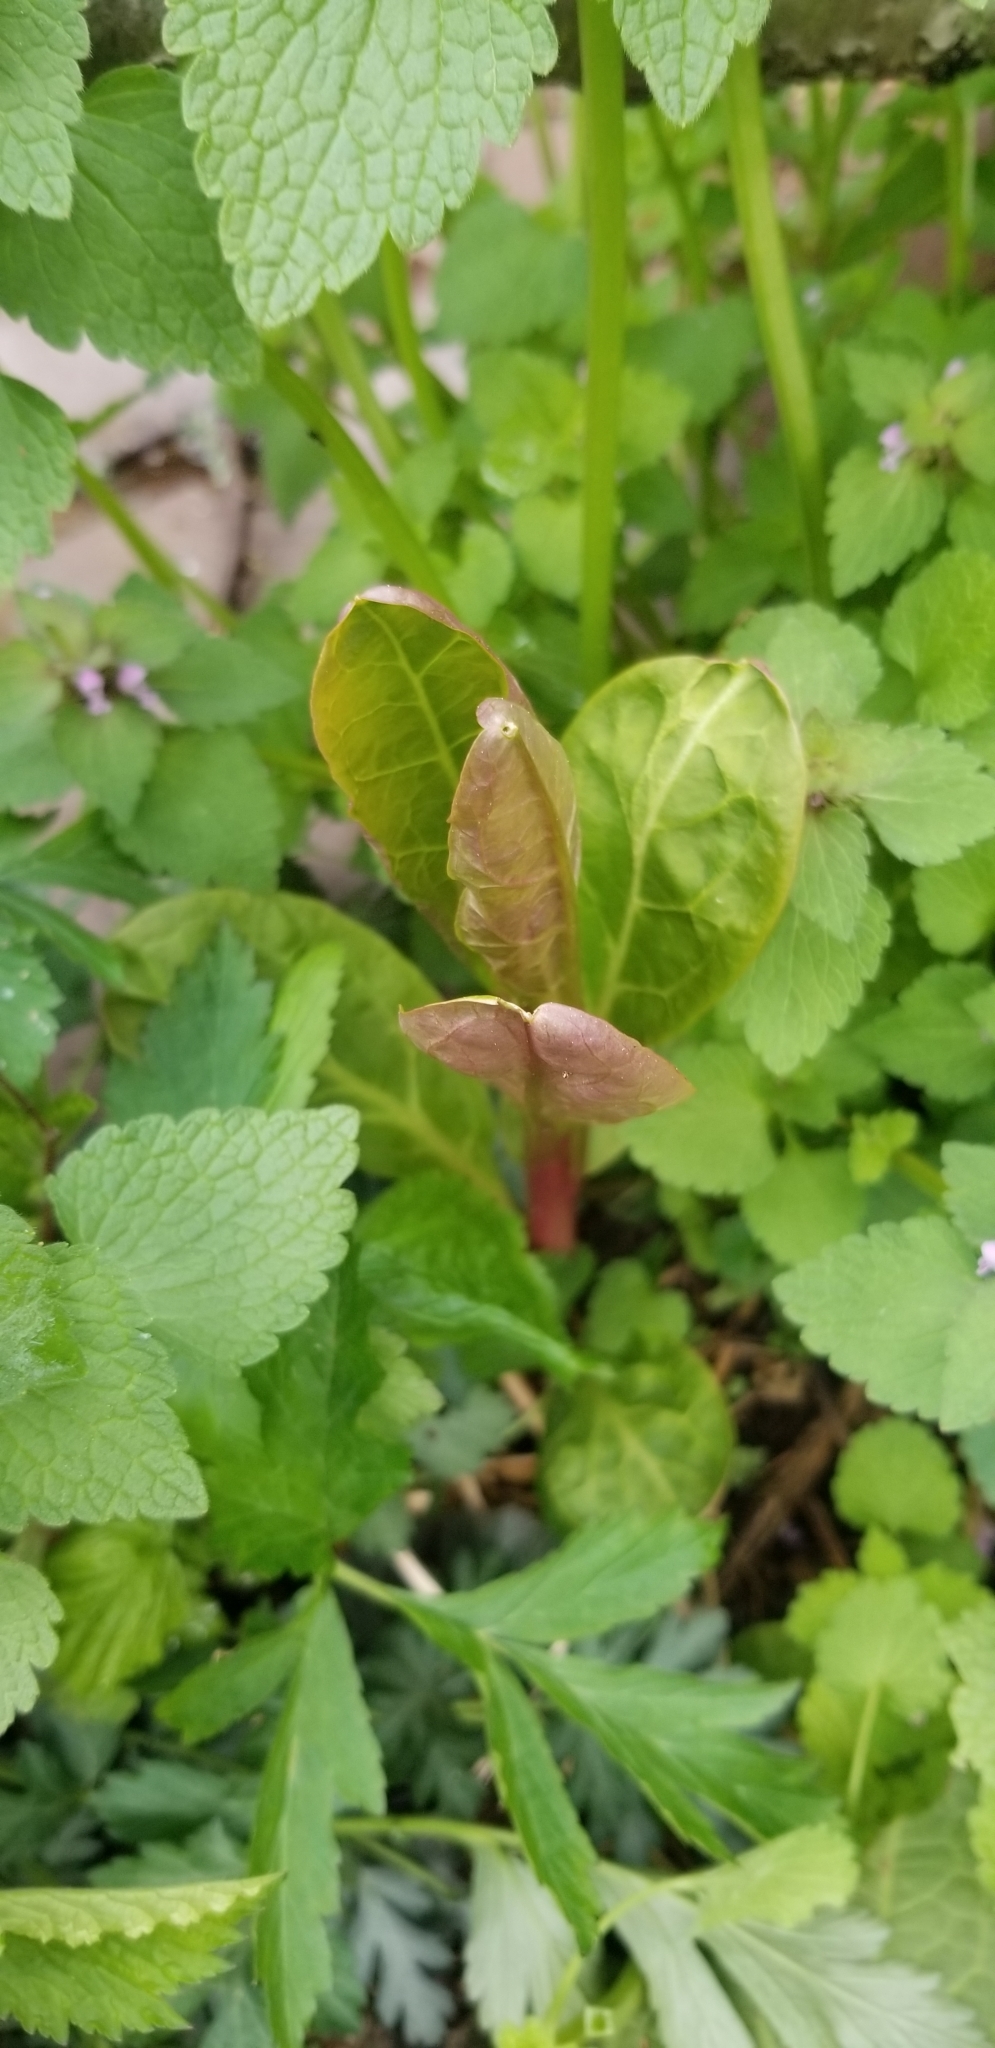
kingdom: Plantae
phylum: Tracheophyta
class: Magnoliopsida
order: Caryophyllales
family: Phytolaccaceae
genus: Phytolacca
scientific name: Phytolacca americana
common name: American pokeweed
